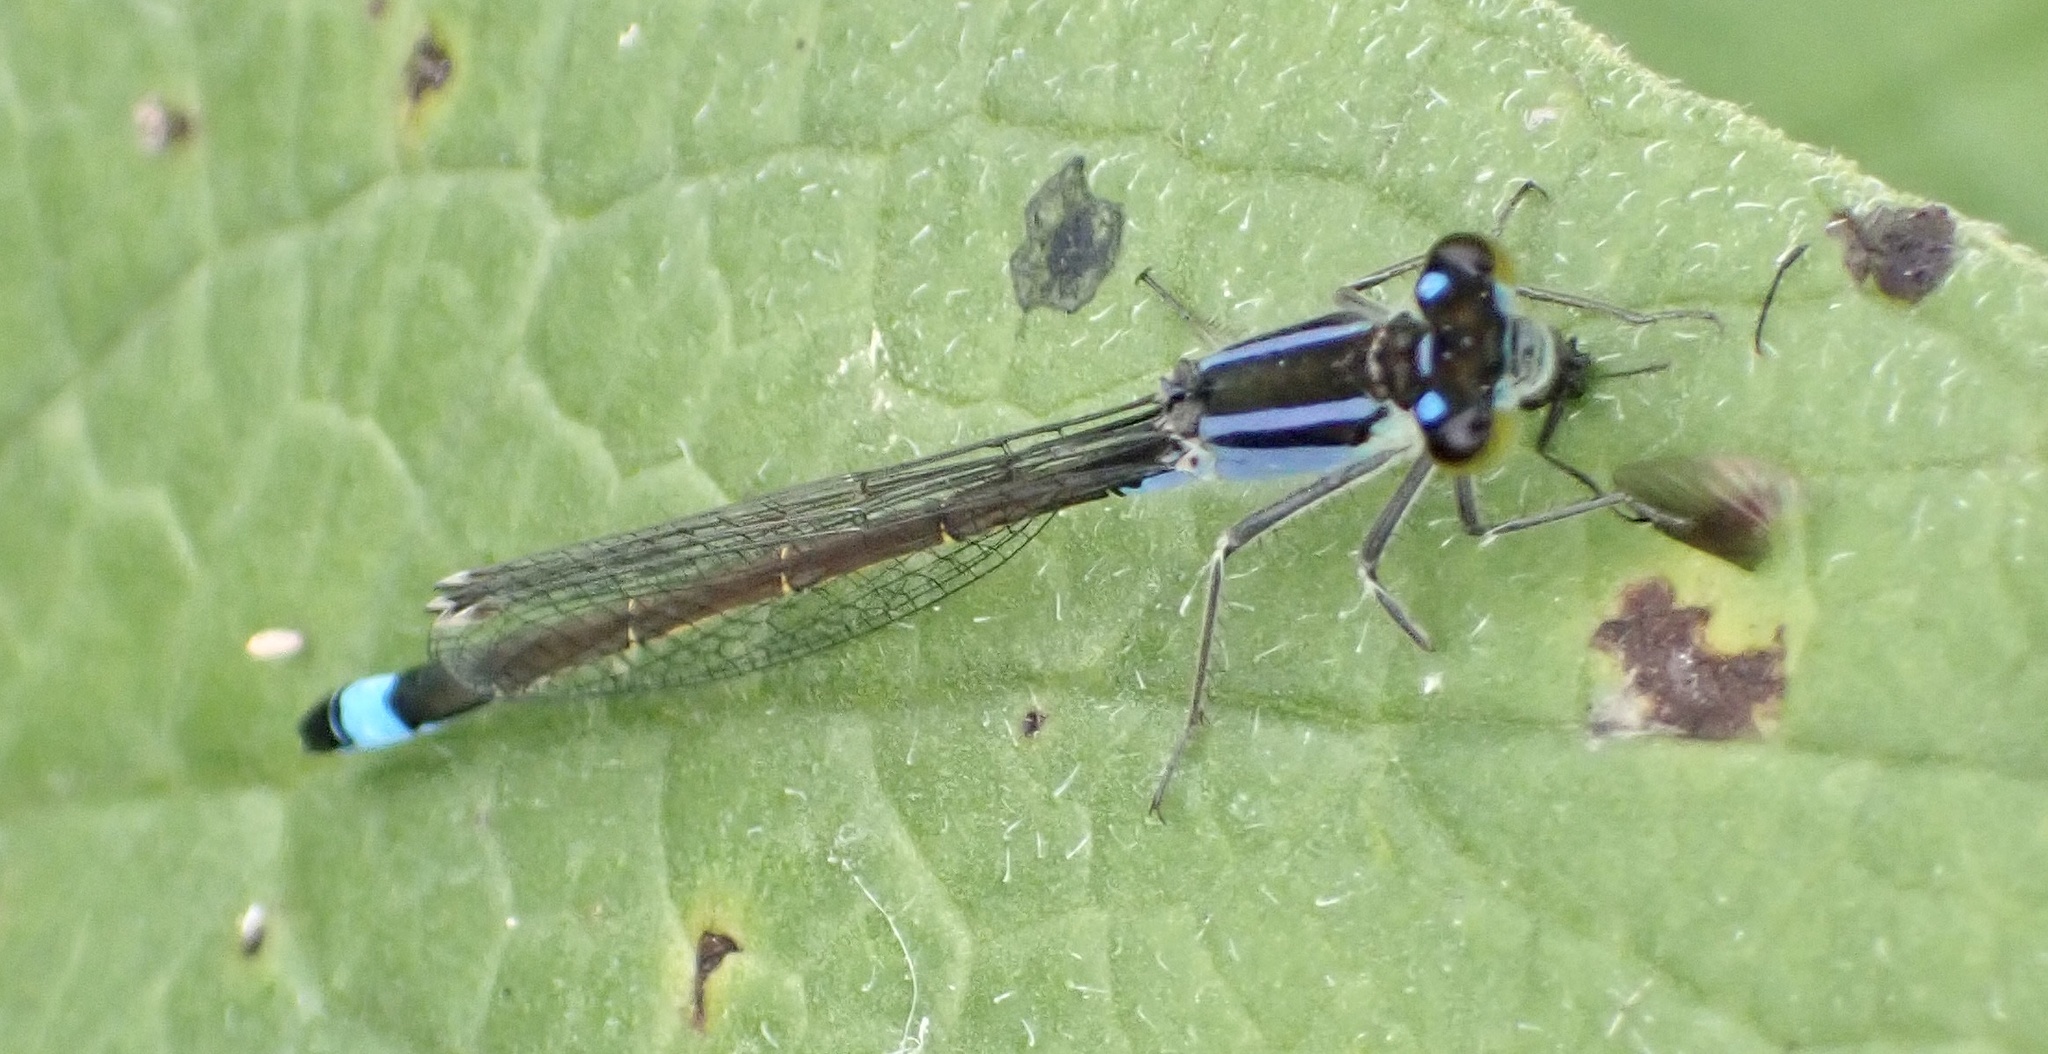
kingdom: Animalia
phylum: Arthropoda
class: Insecta
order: Odonata
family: Coenagrionidae
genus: Ischnura
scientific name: Ischnura elegans
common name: Blue-tailed damselfly
